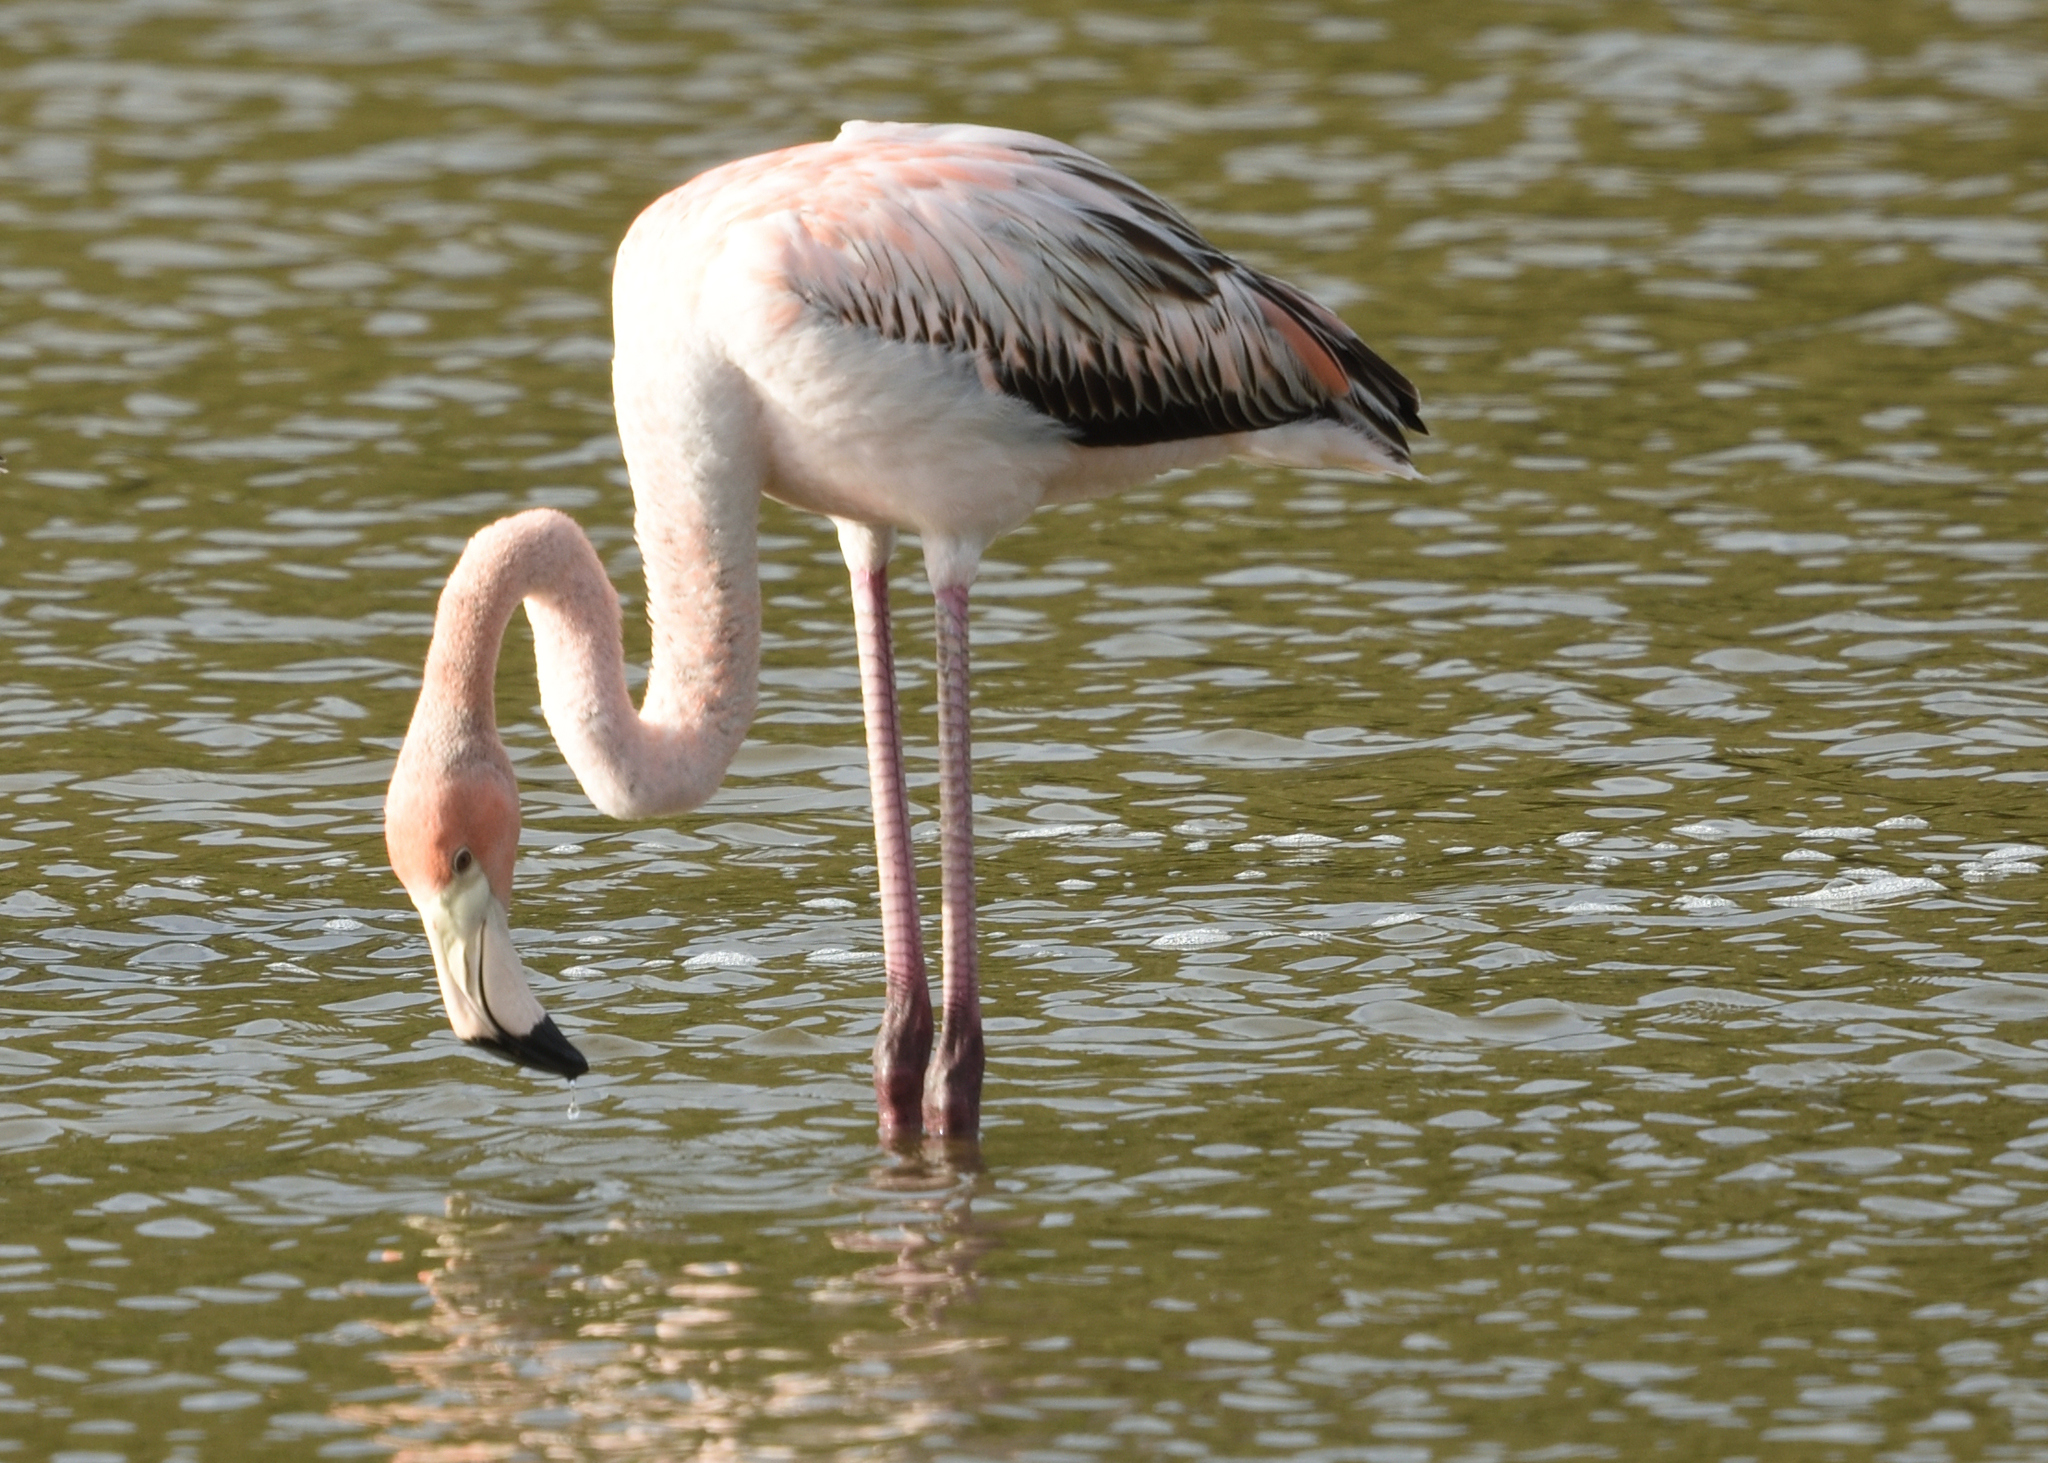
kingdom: Animalia
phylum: Chordata
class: Aves
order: Phoenicopteriformes
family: Phoenicopteridae
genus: Phoenicopterus
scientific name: Phoenicopterus ruber
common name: American flamingo
